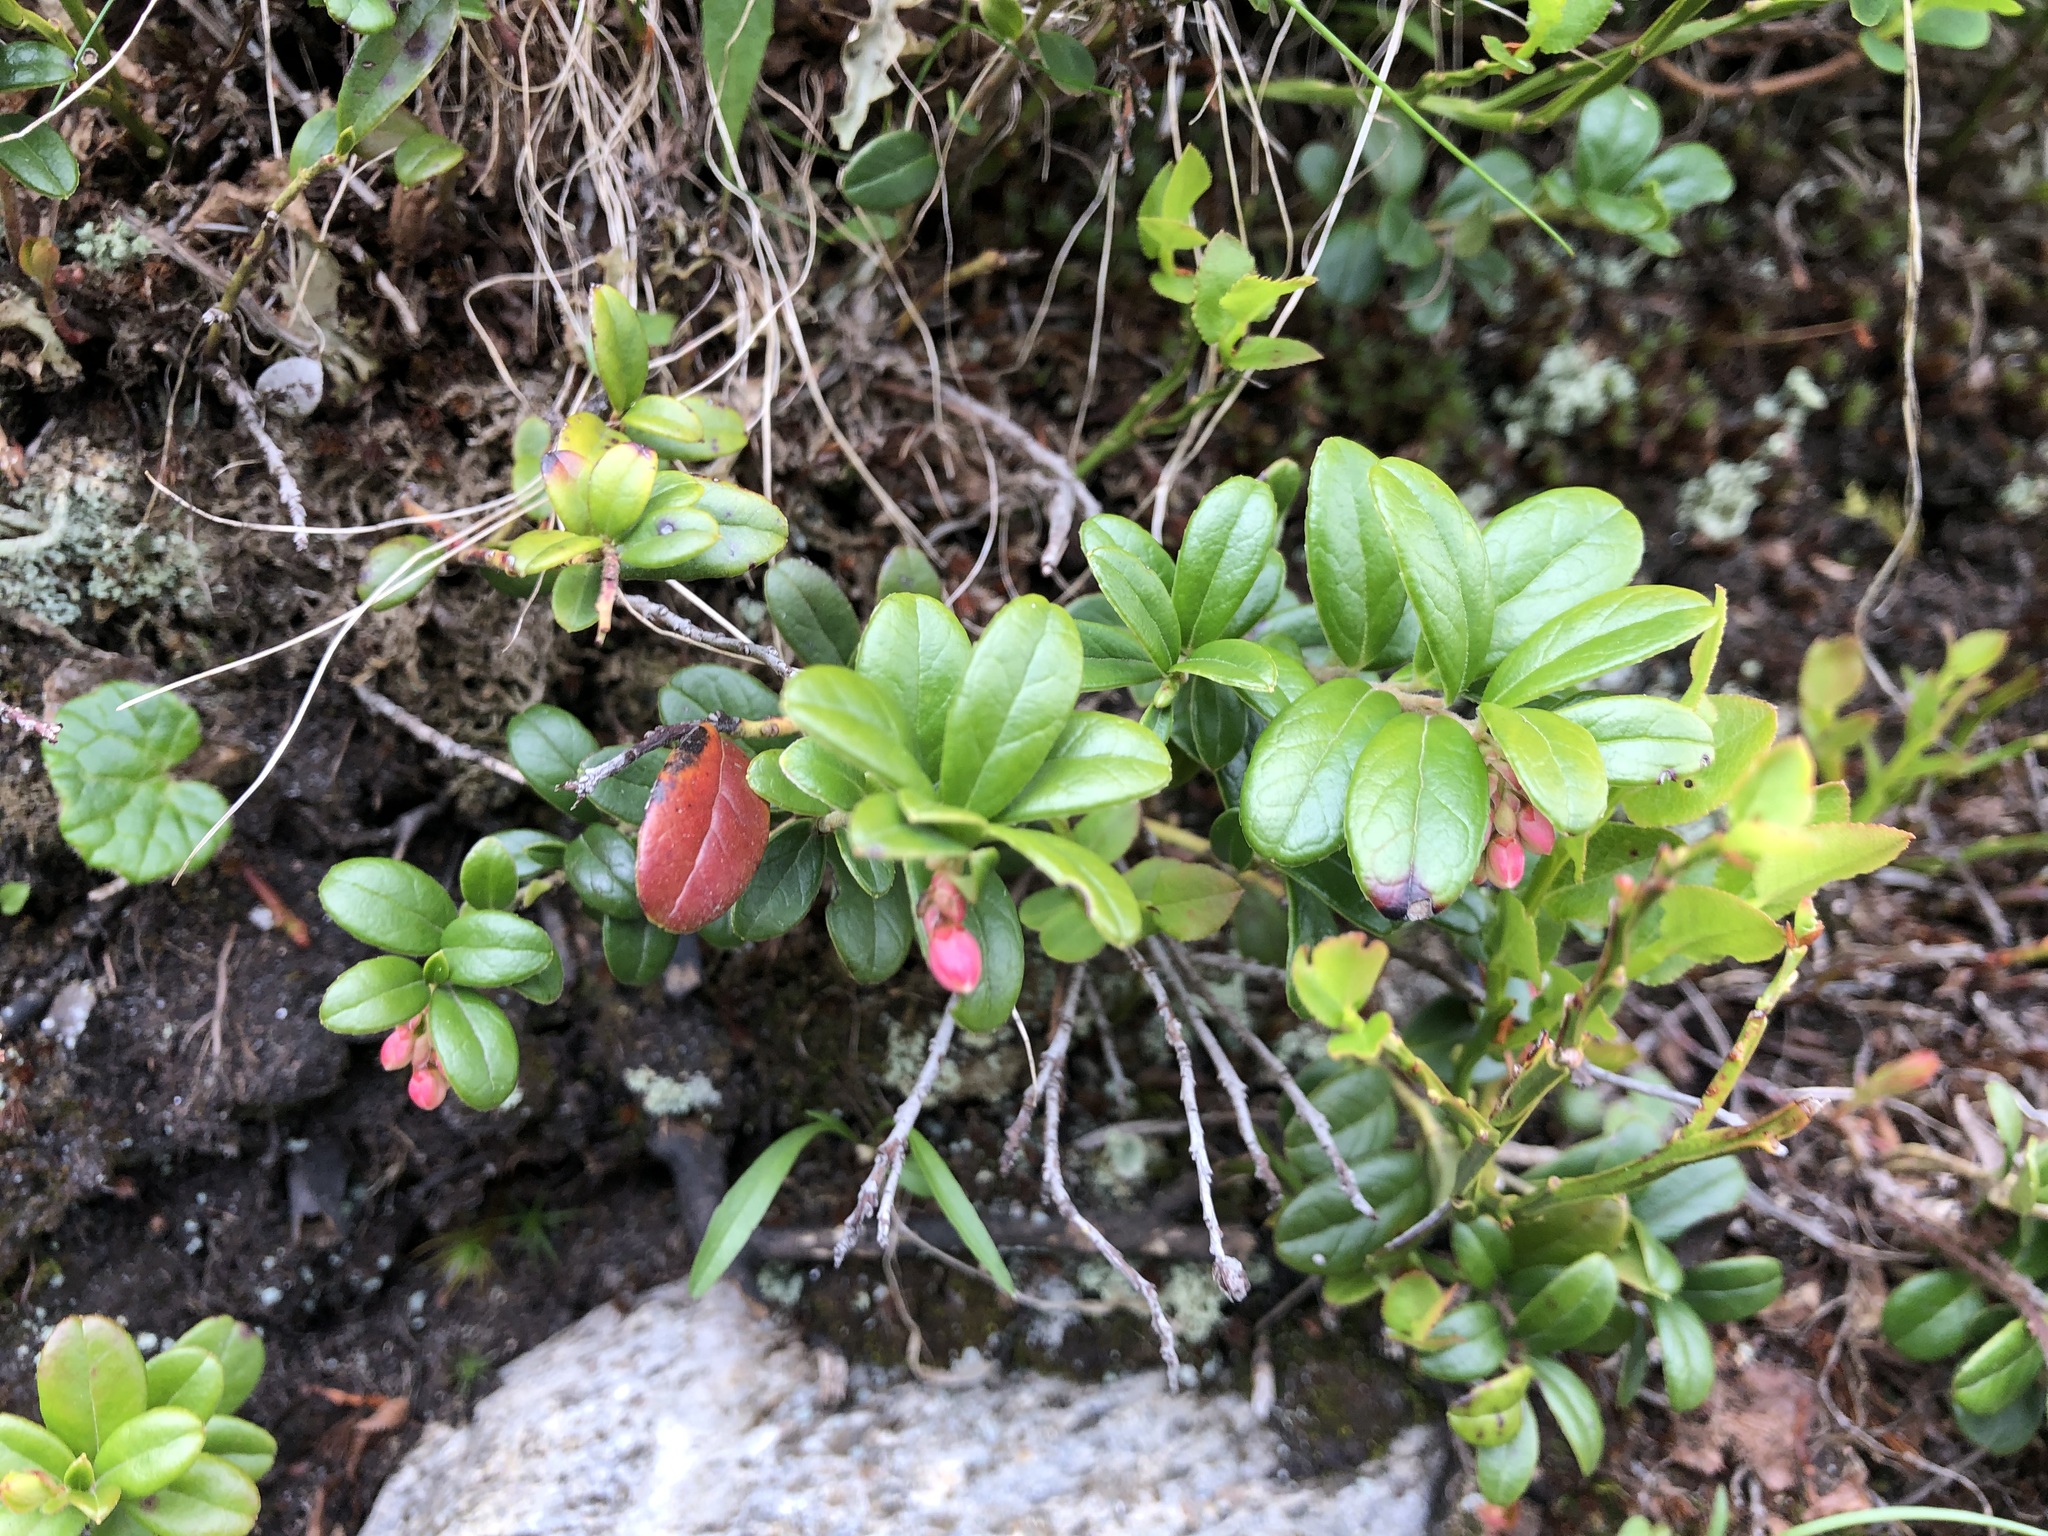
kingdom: Plantae
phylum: Tracheophyta
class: Magnoliopsida
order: Ericales
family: Ericaceae
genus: Vaccinium
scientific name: Vaccinium vitis-idaea
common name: Cowberry
